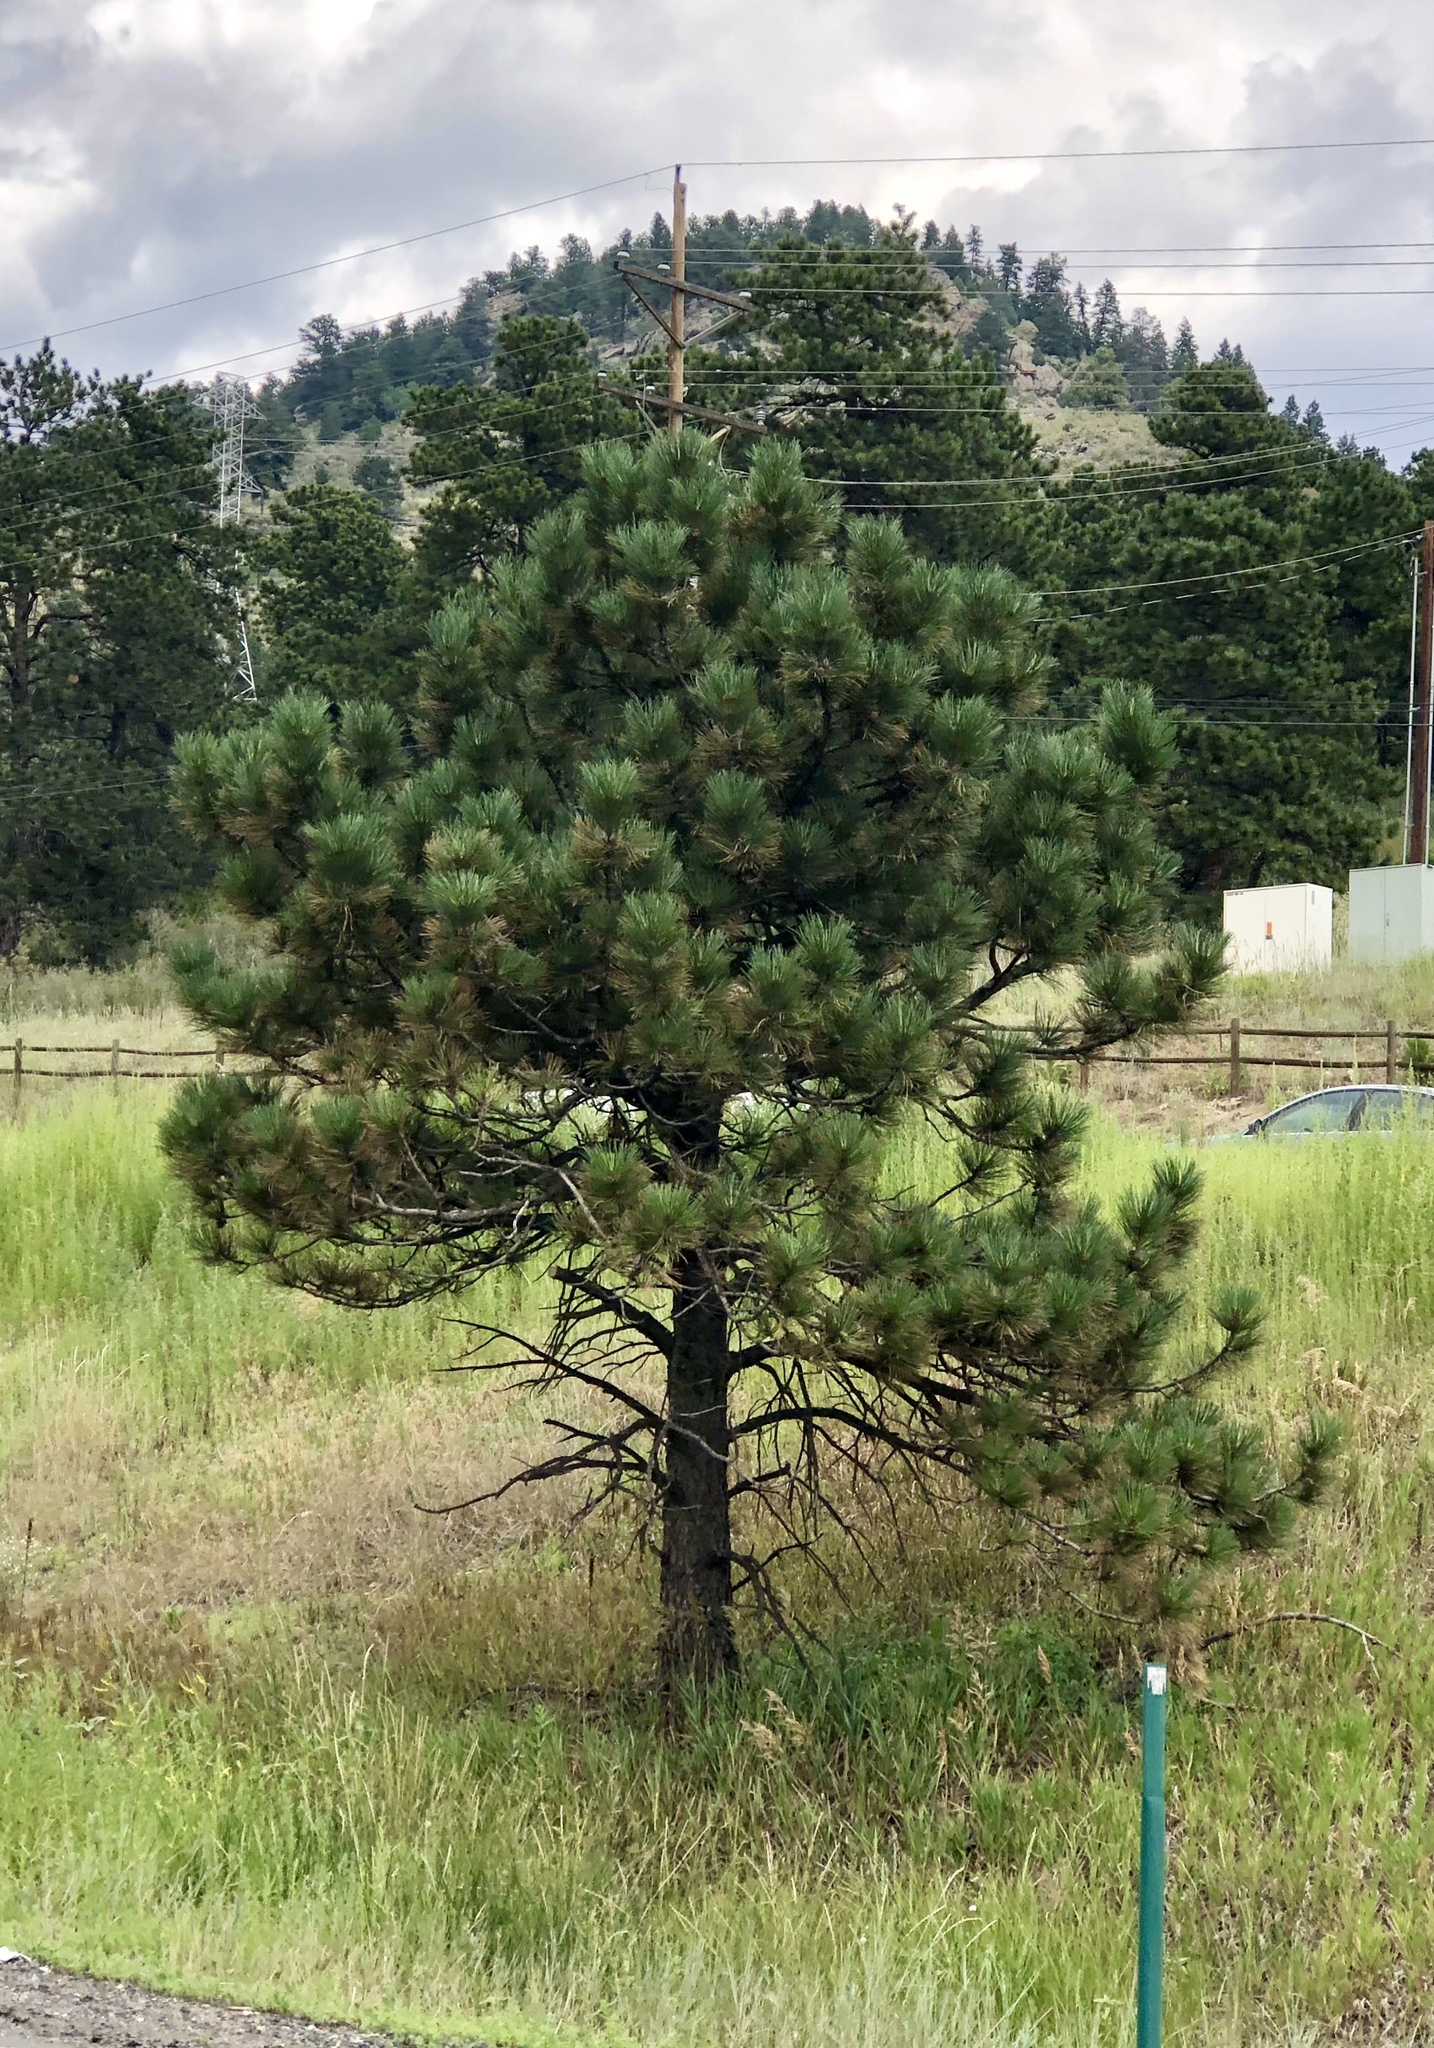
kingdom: Plantae
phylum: Tracheophyta
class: Pinopsida
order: Pinales
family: Pinaceae
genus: Pinus
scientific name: Pinus ponderosa
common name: Western yellow-pine
